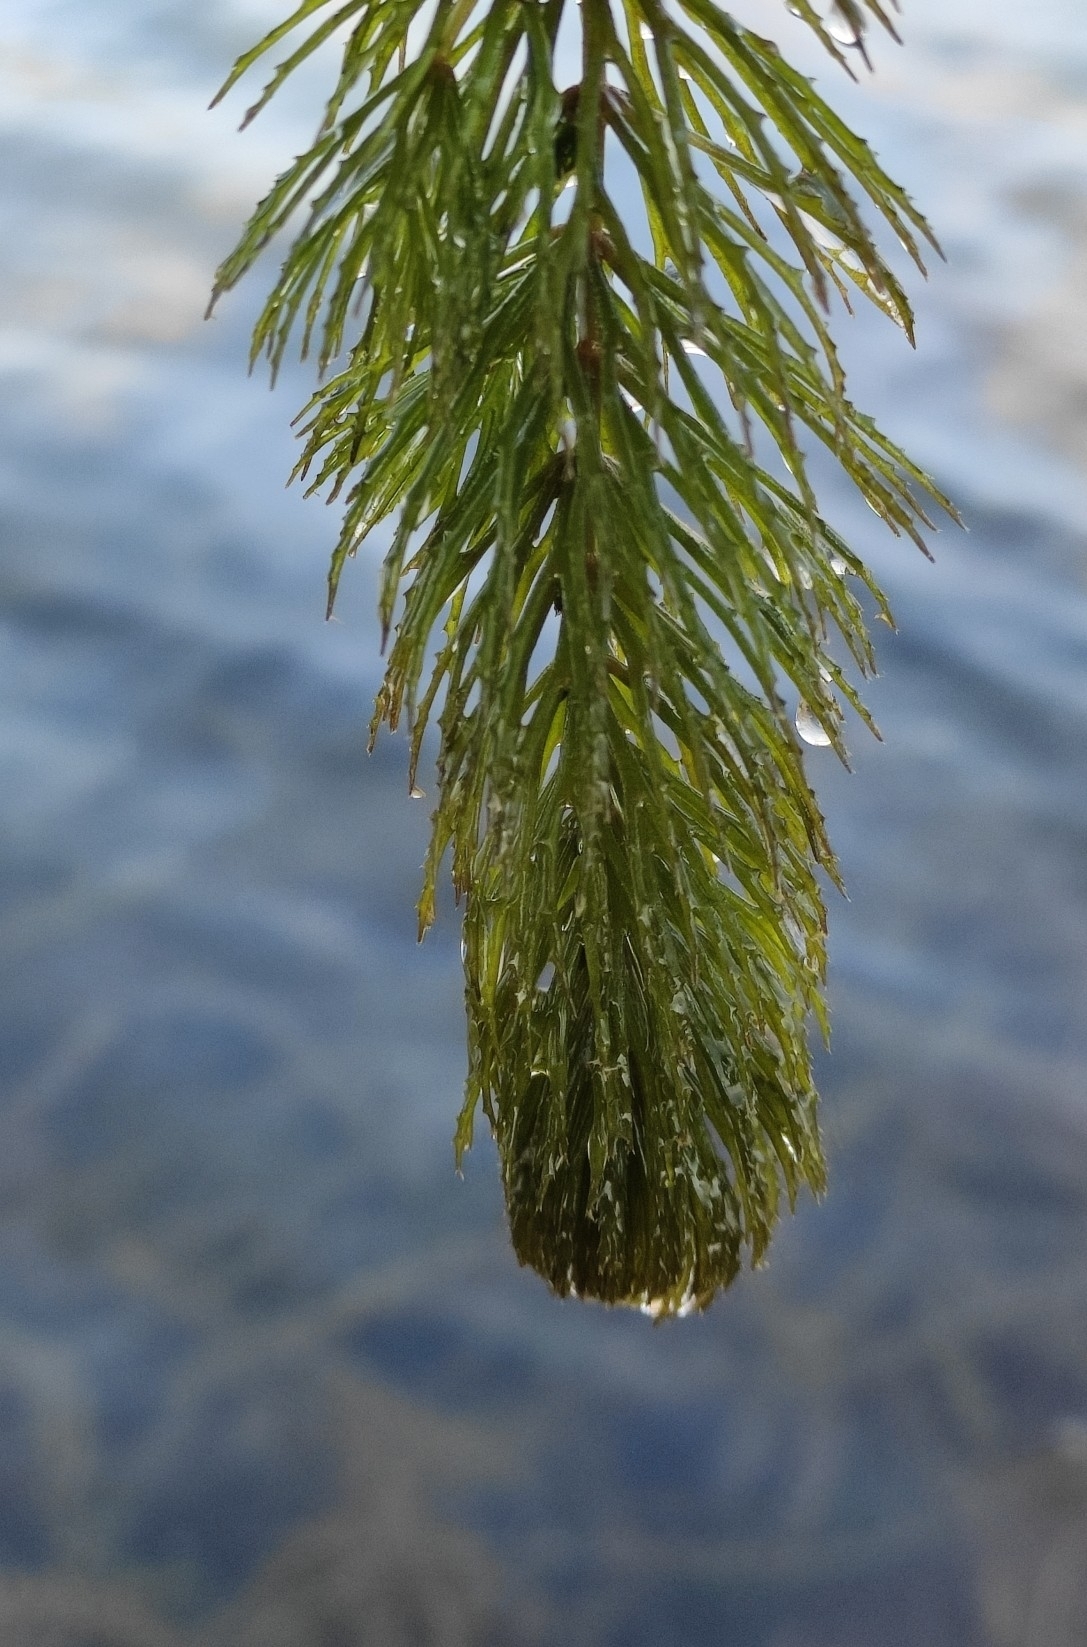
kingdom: Plantae
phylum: Tracheophyta
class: Magnoliopsida
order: Ceratophyllales
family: Ceratophyllaceae
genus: Ceratophyllum
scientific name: Ceratophyllum demersum
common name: Rigid hornwort
